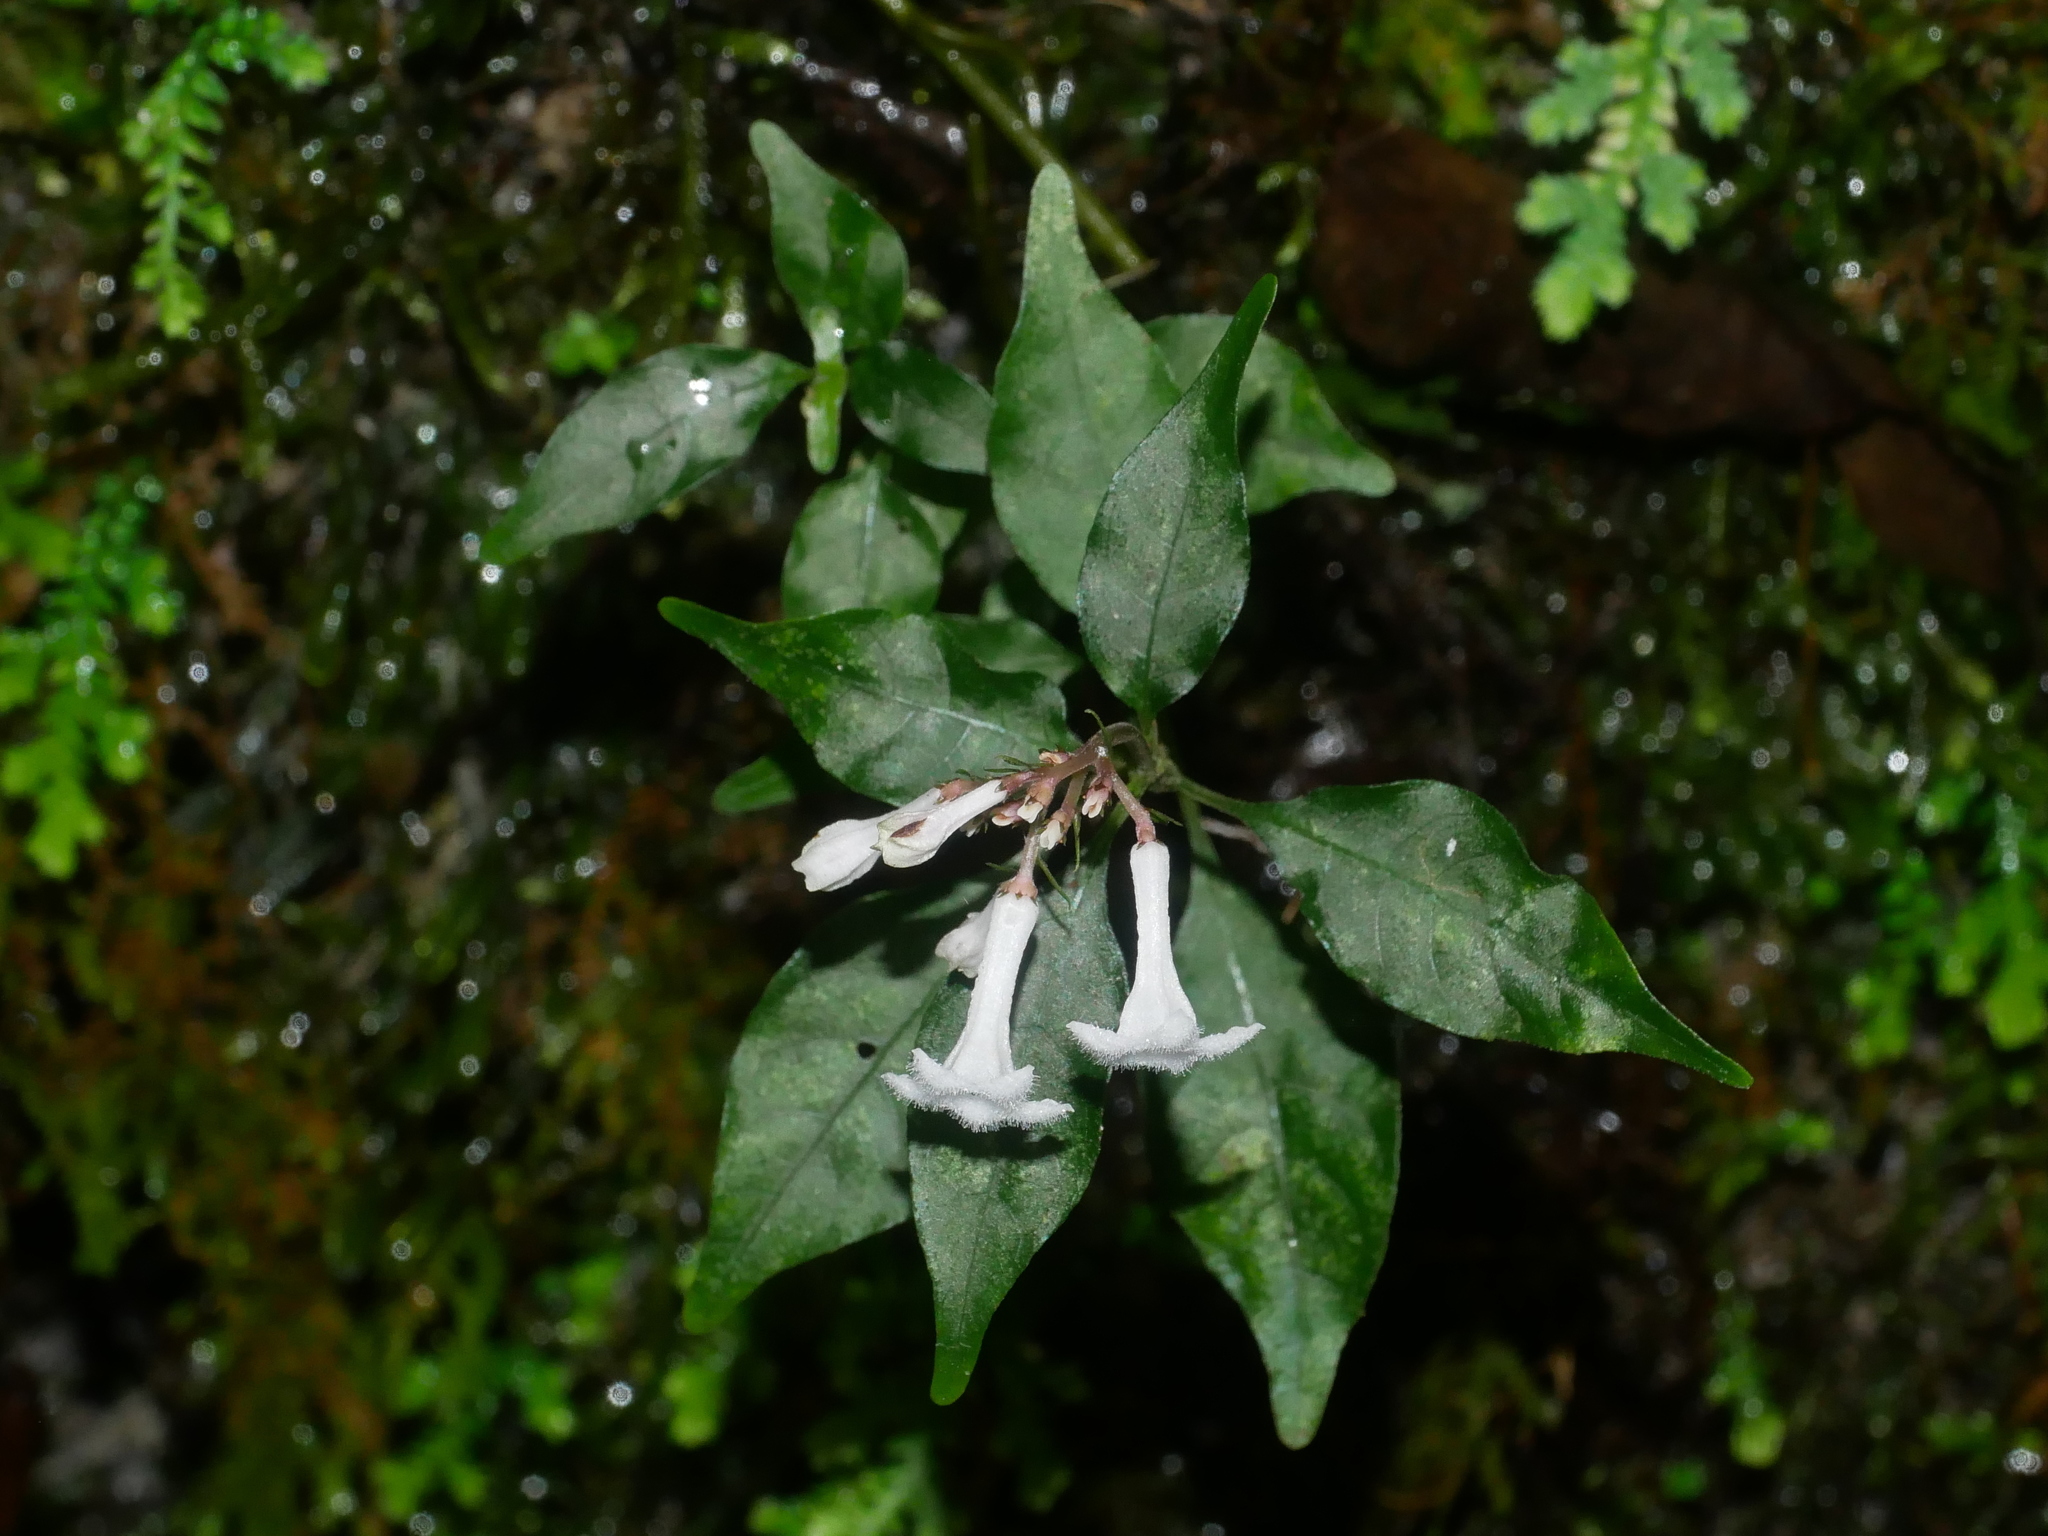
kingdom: Plantae
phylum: Tracheophyta
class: Magnoliopsida
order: Gentianales
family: Rubiaceae
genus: Ophiorrhiza
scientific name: Ophiorrhiza japonica
